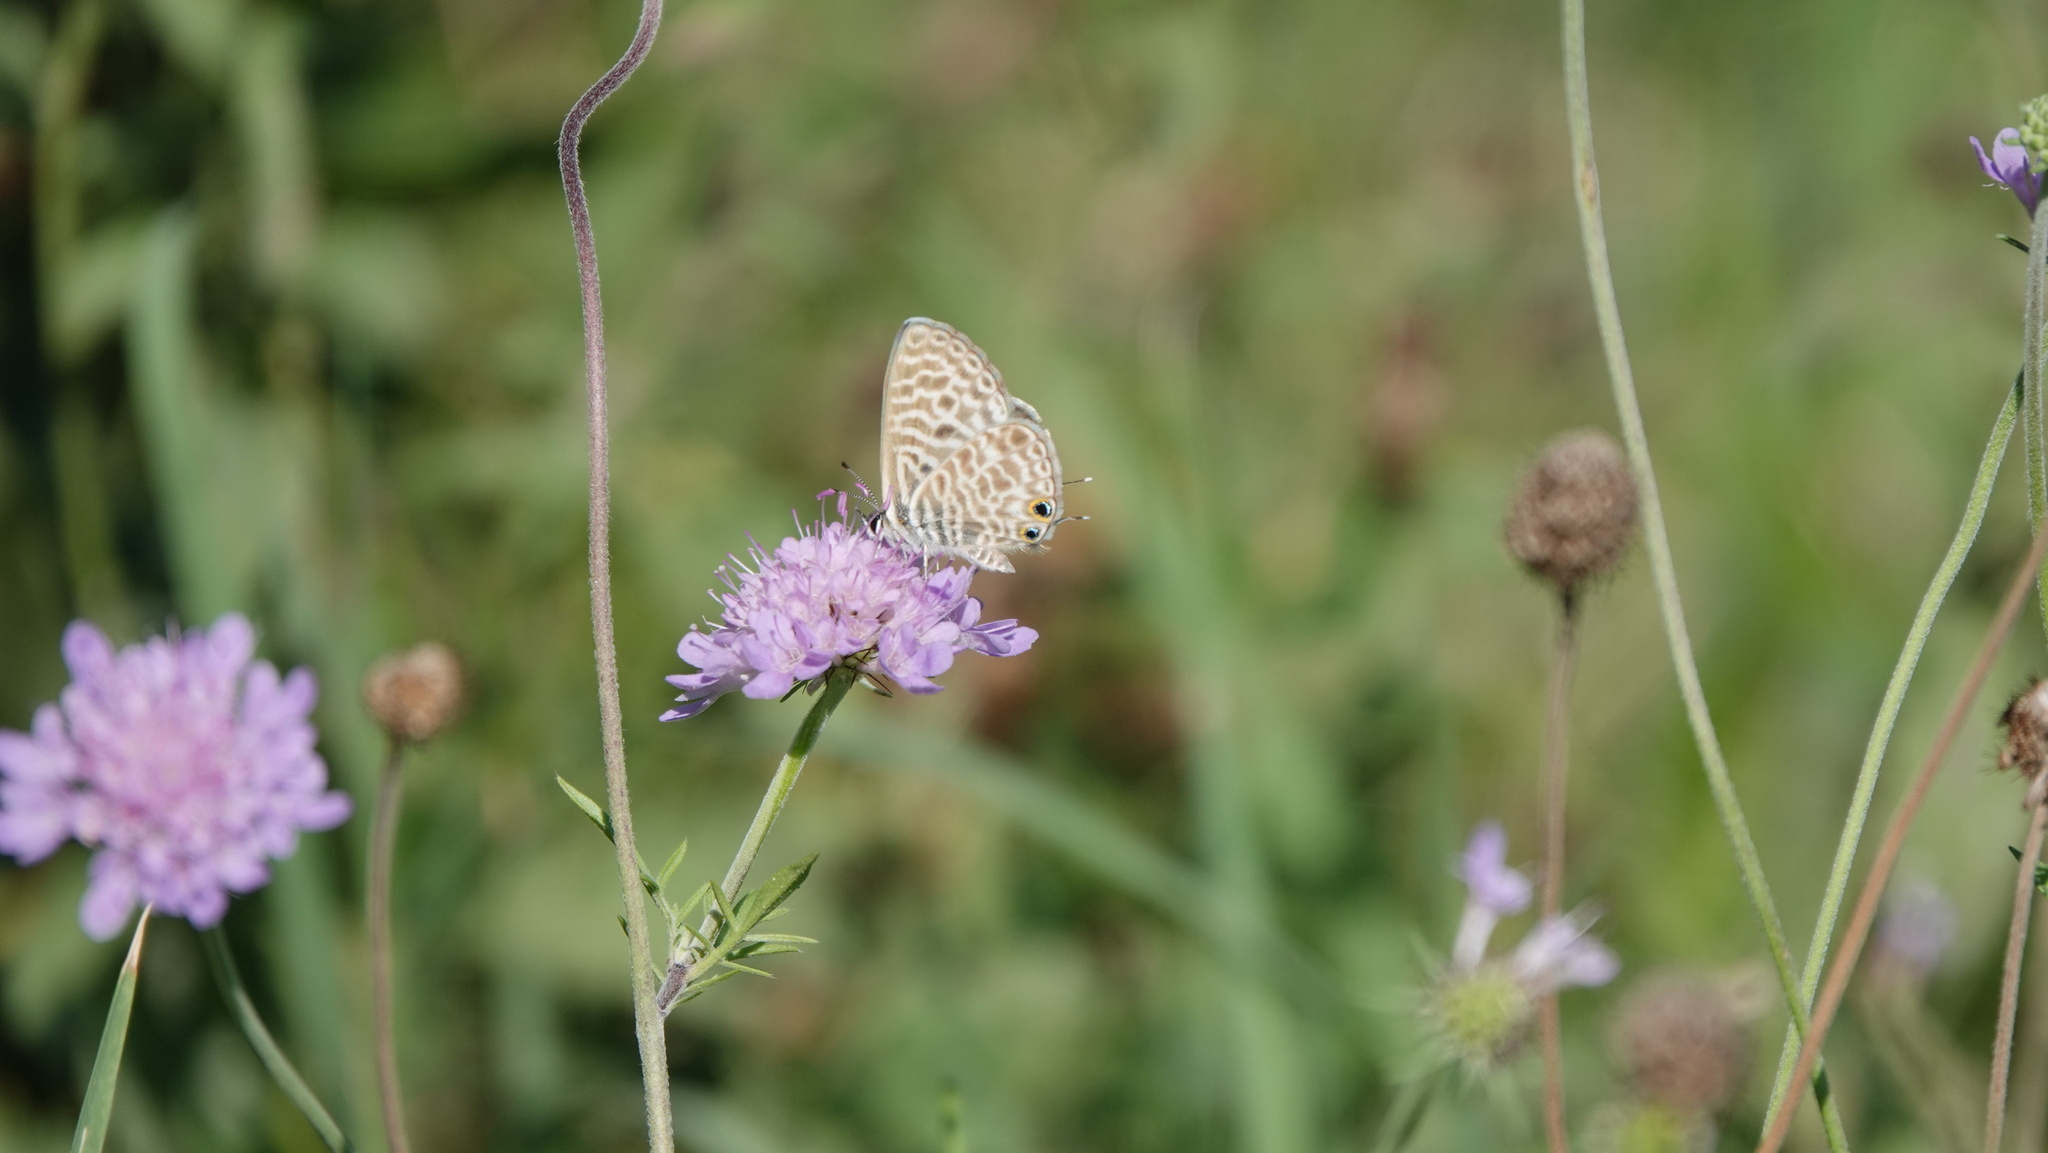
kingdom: Animalia
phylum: Arthropoda
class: Insecta
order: Lepidoptera
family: Lycaenidae
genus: Leptotes
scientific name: Leptotes pirithous
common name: Lang's short-tailed blue
